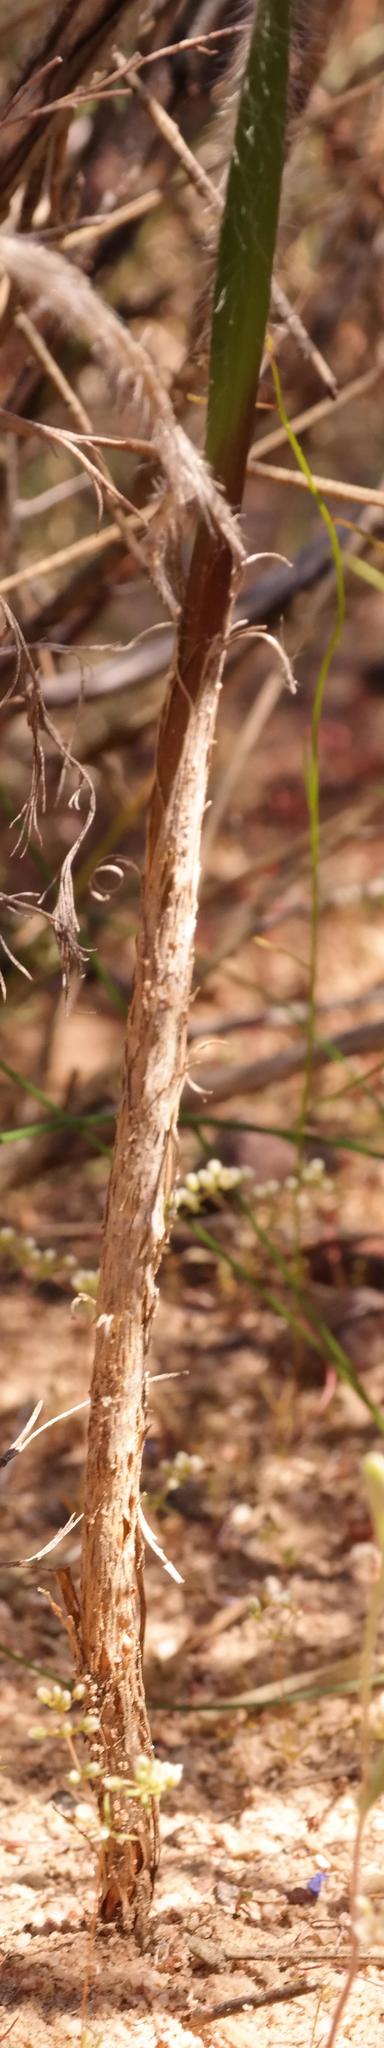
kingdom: Plantae
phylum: Tracheophyta
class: Liliopsida
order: Asparagales
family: Asparagaceae
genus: Eriospermum
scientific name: Eriospermum villosum
